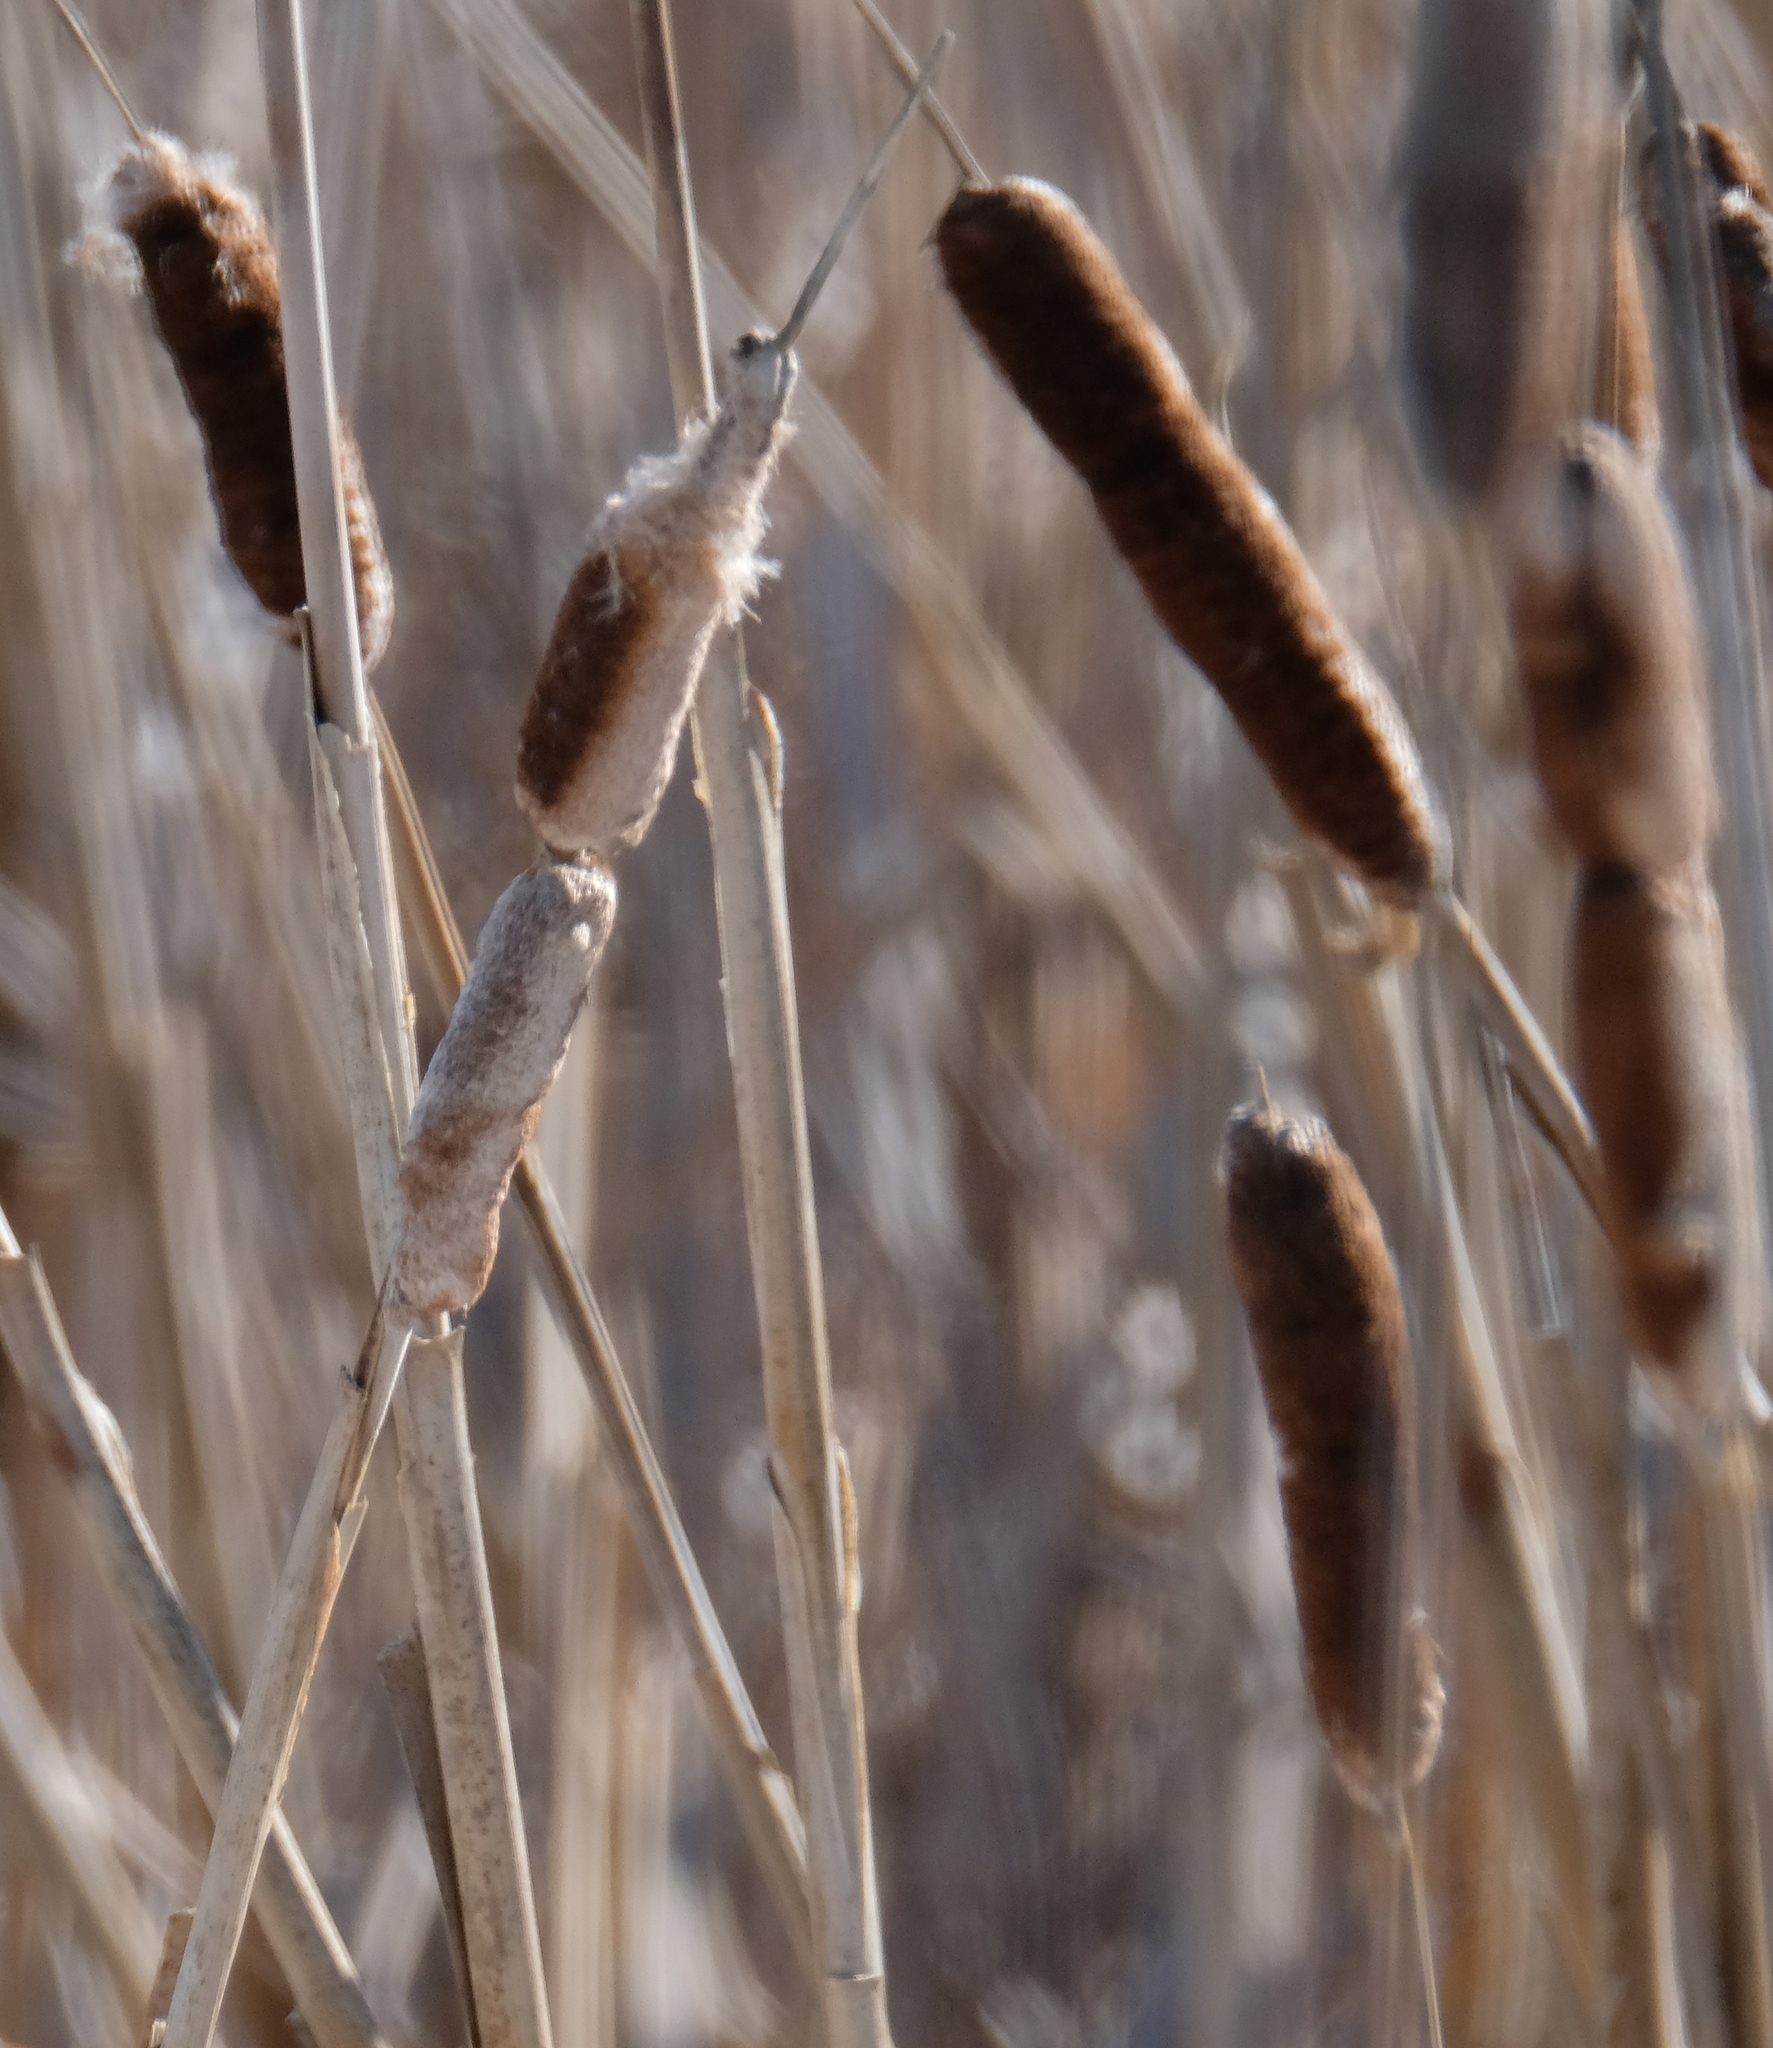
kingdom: Plantae
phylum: Tracheophyta
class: Liliopsida
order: Poales
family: Typhaceae
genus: Typha
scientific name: Typha latifolia
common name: Broadleaf cattail
